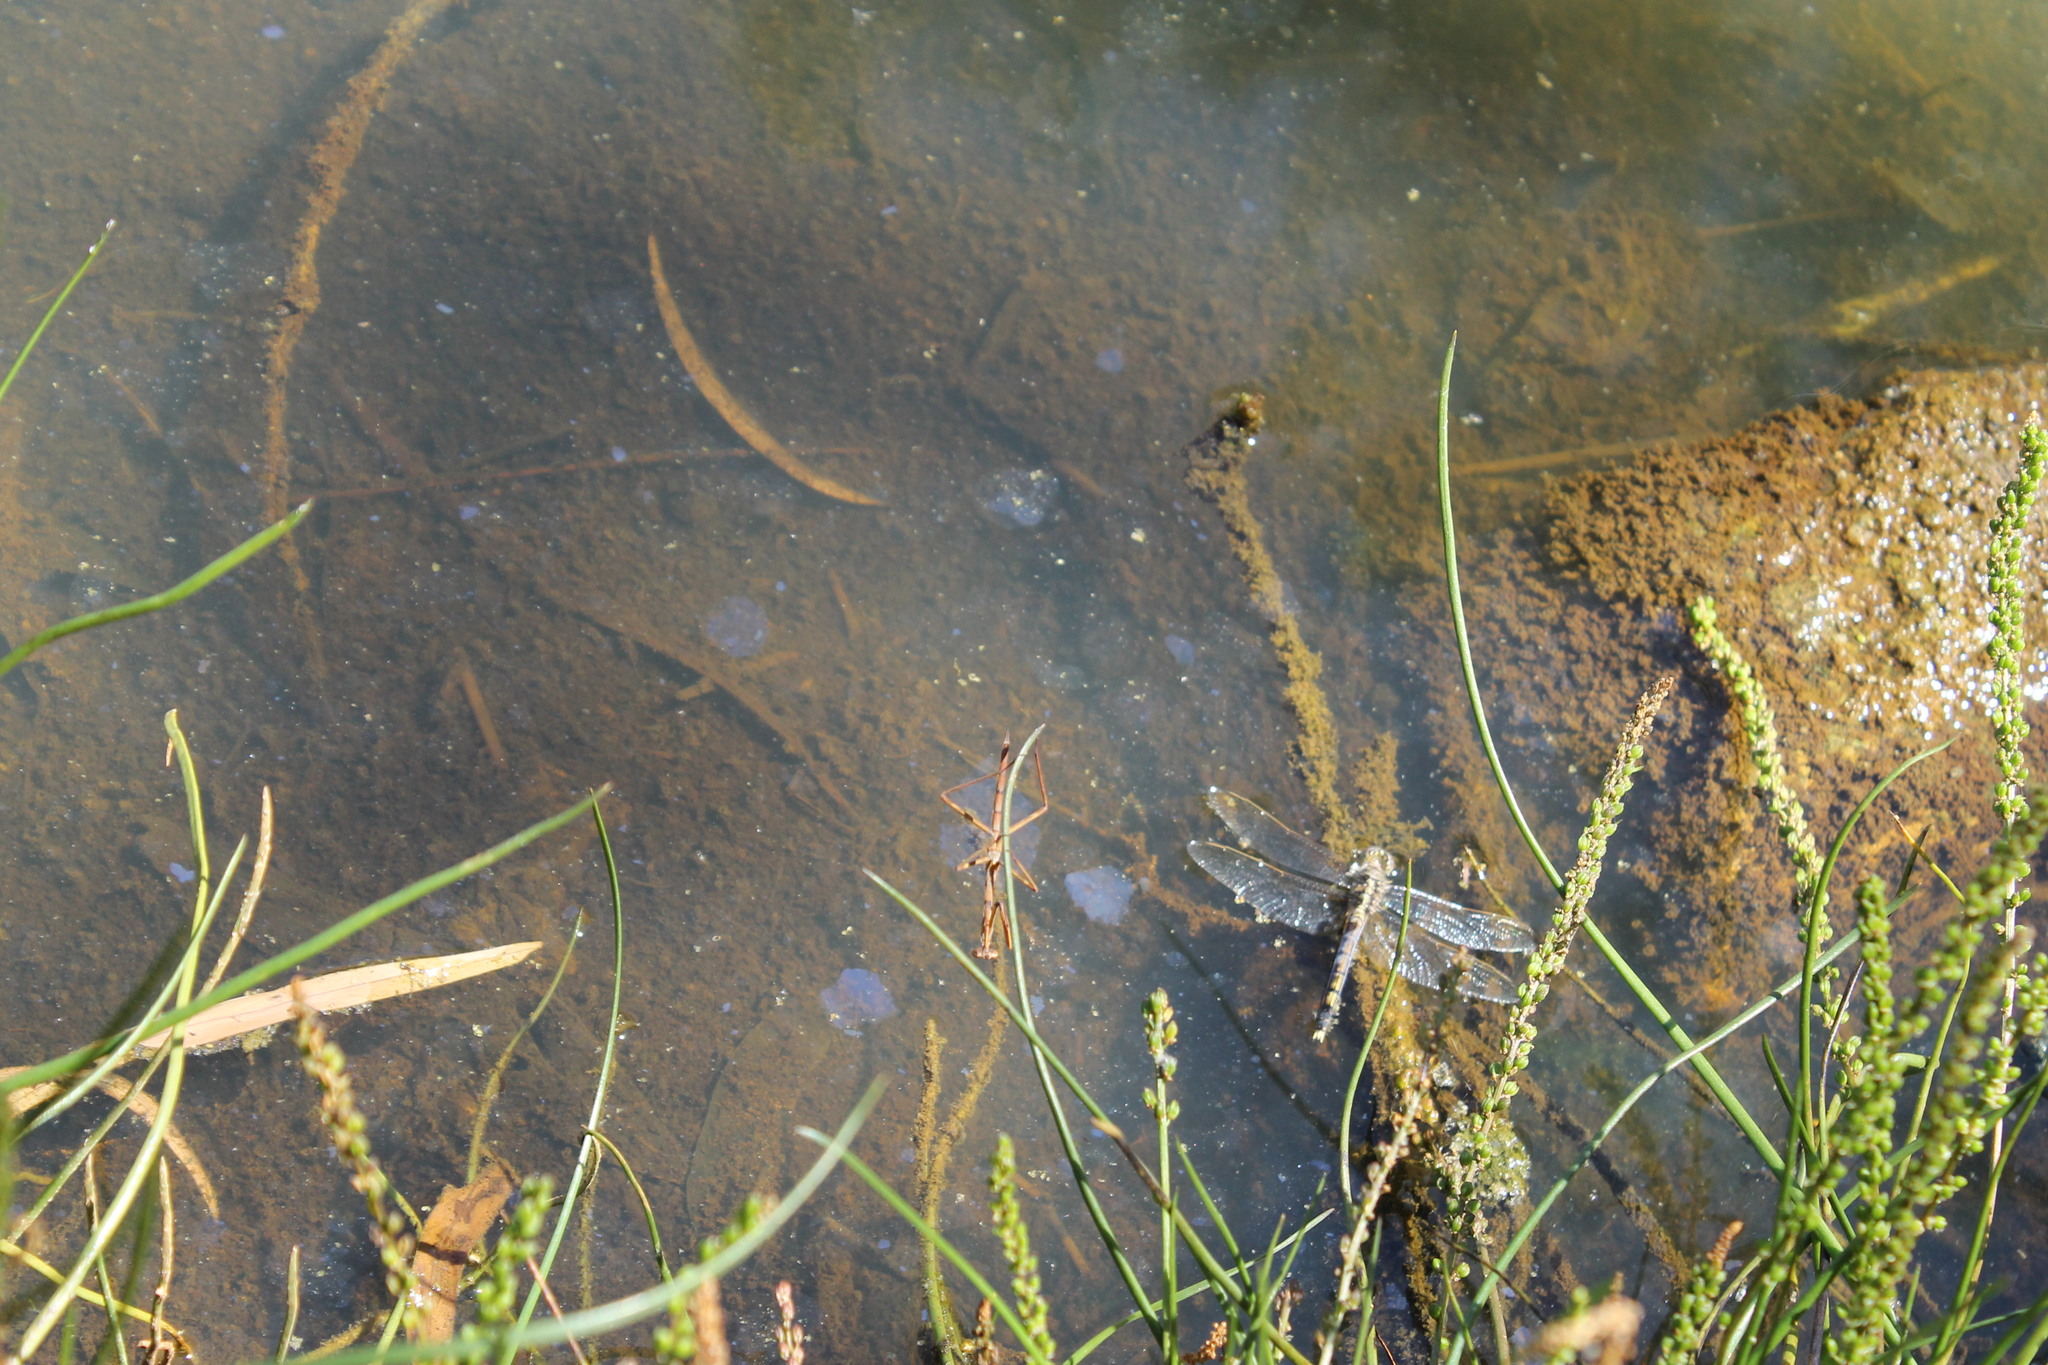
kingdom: Animalia
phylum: Arthropoda
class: Insecta
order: Odonata
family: Libellulidae
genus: Orthetrum
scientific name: Orthetrum caledonicum
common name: Blue skimmer
